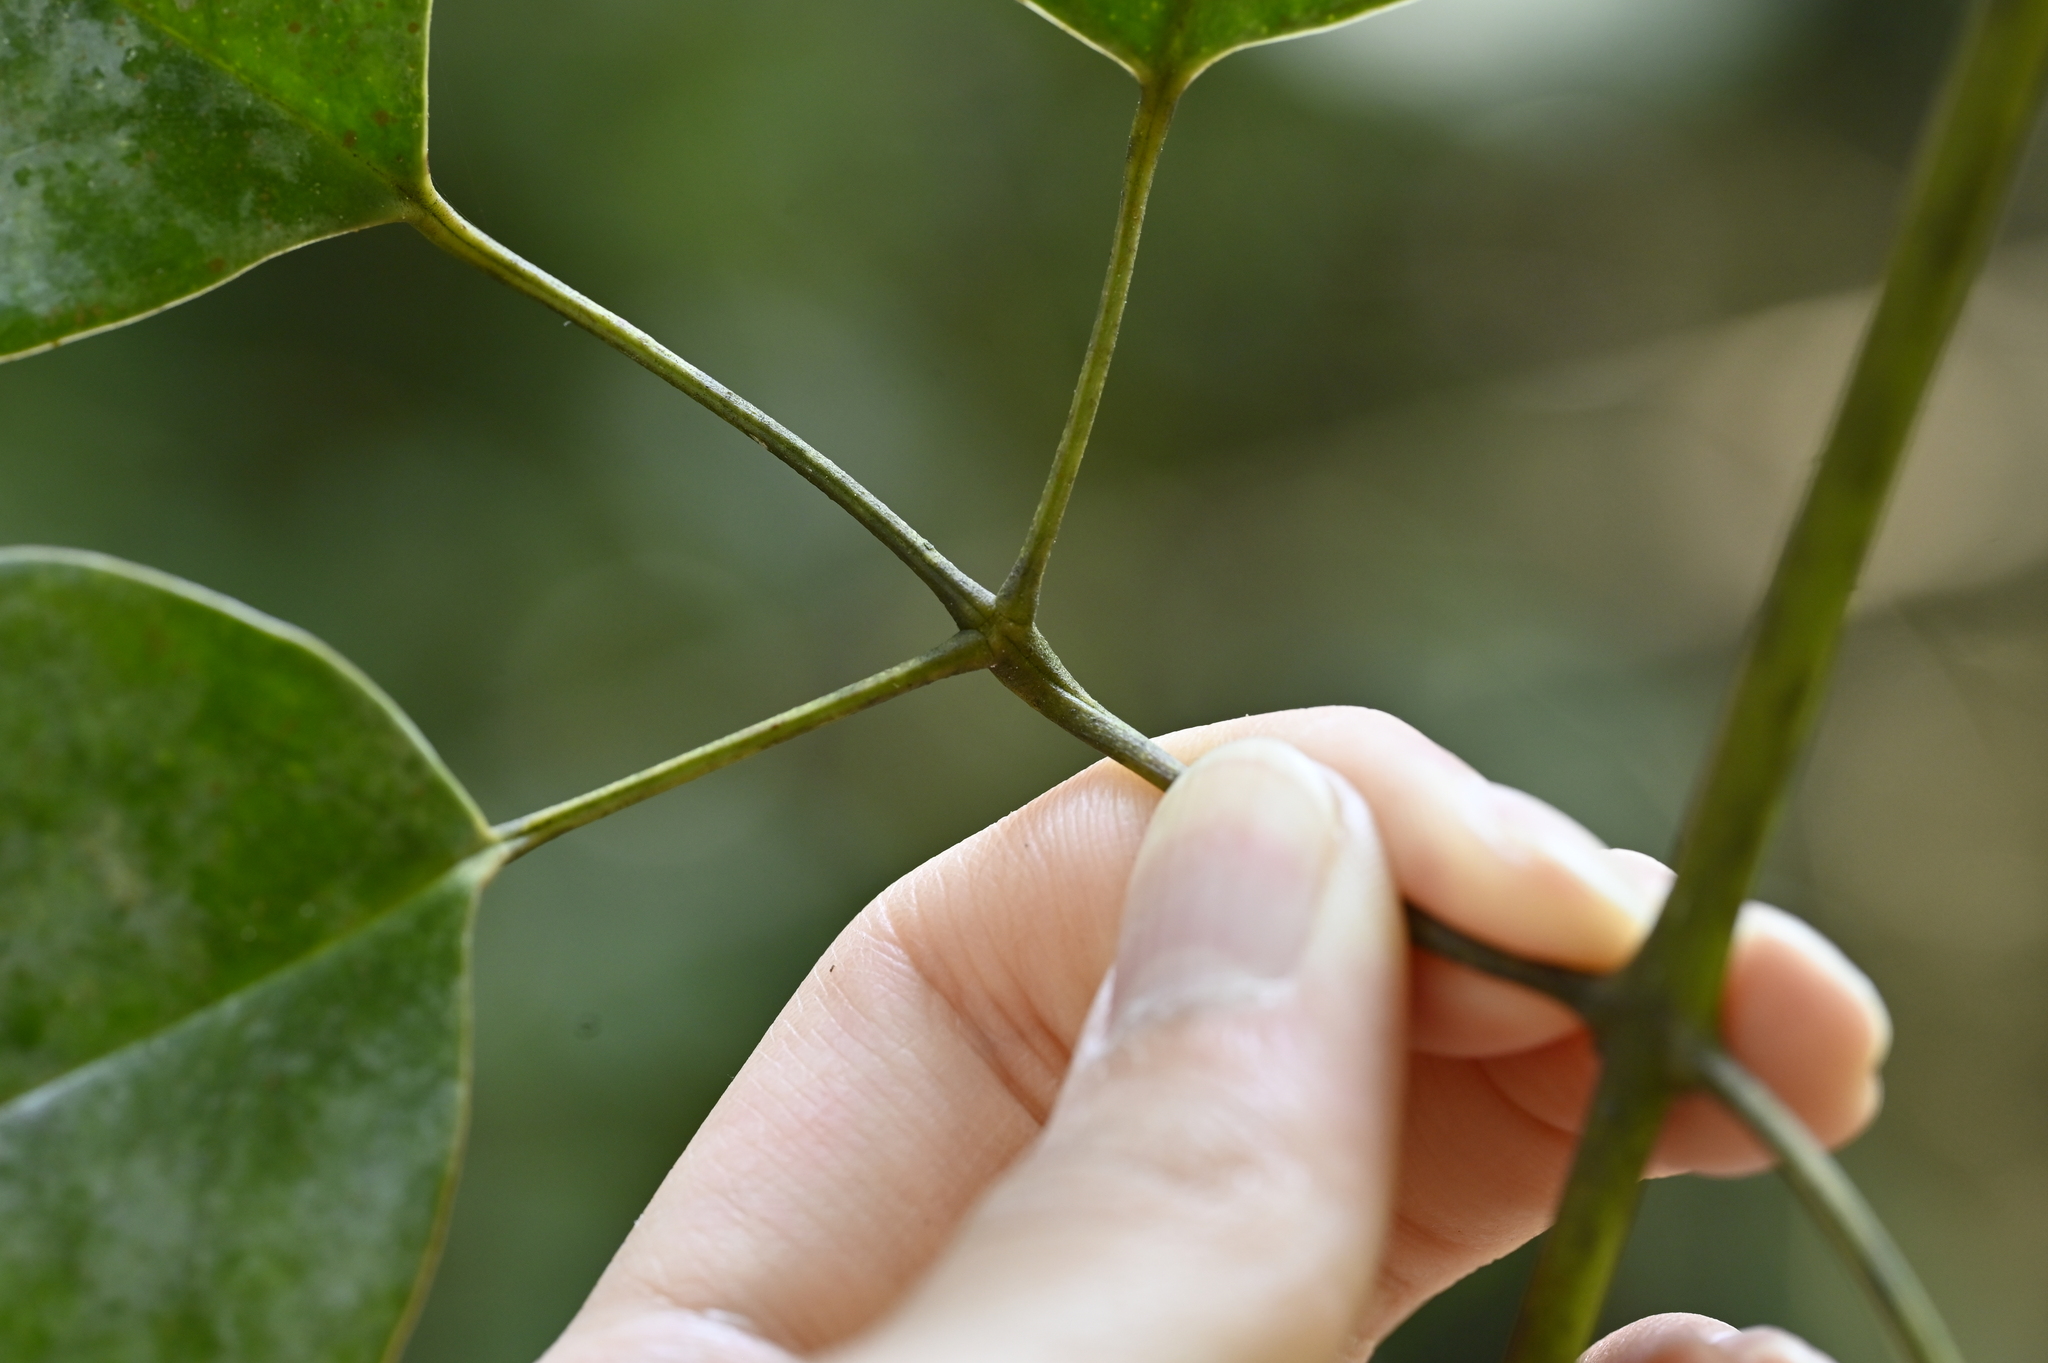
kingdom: Plantae
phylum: Tracheophyta
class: Magnoliopsida
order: Lamiales
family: Oleaceae
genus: Jasminum
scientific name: Jasminum lanceolaria
